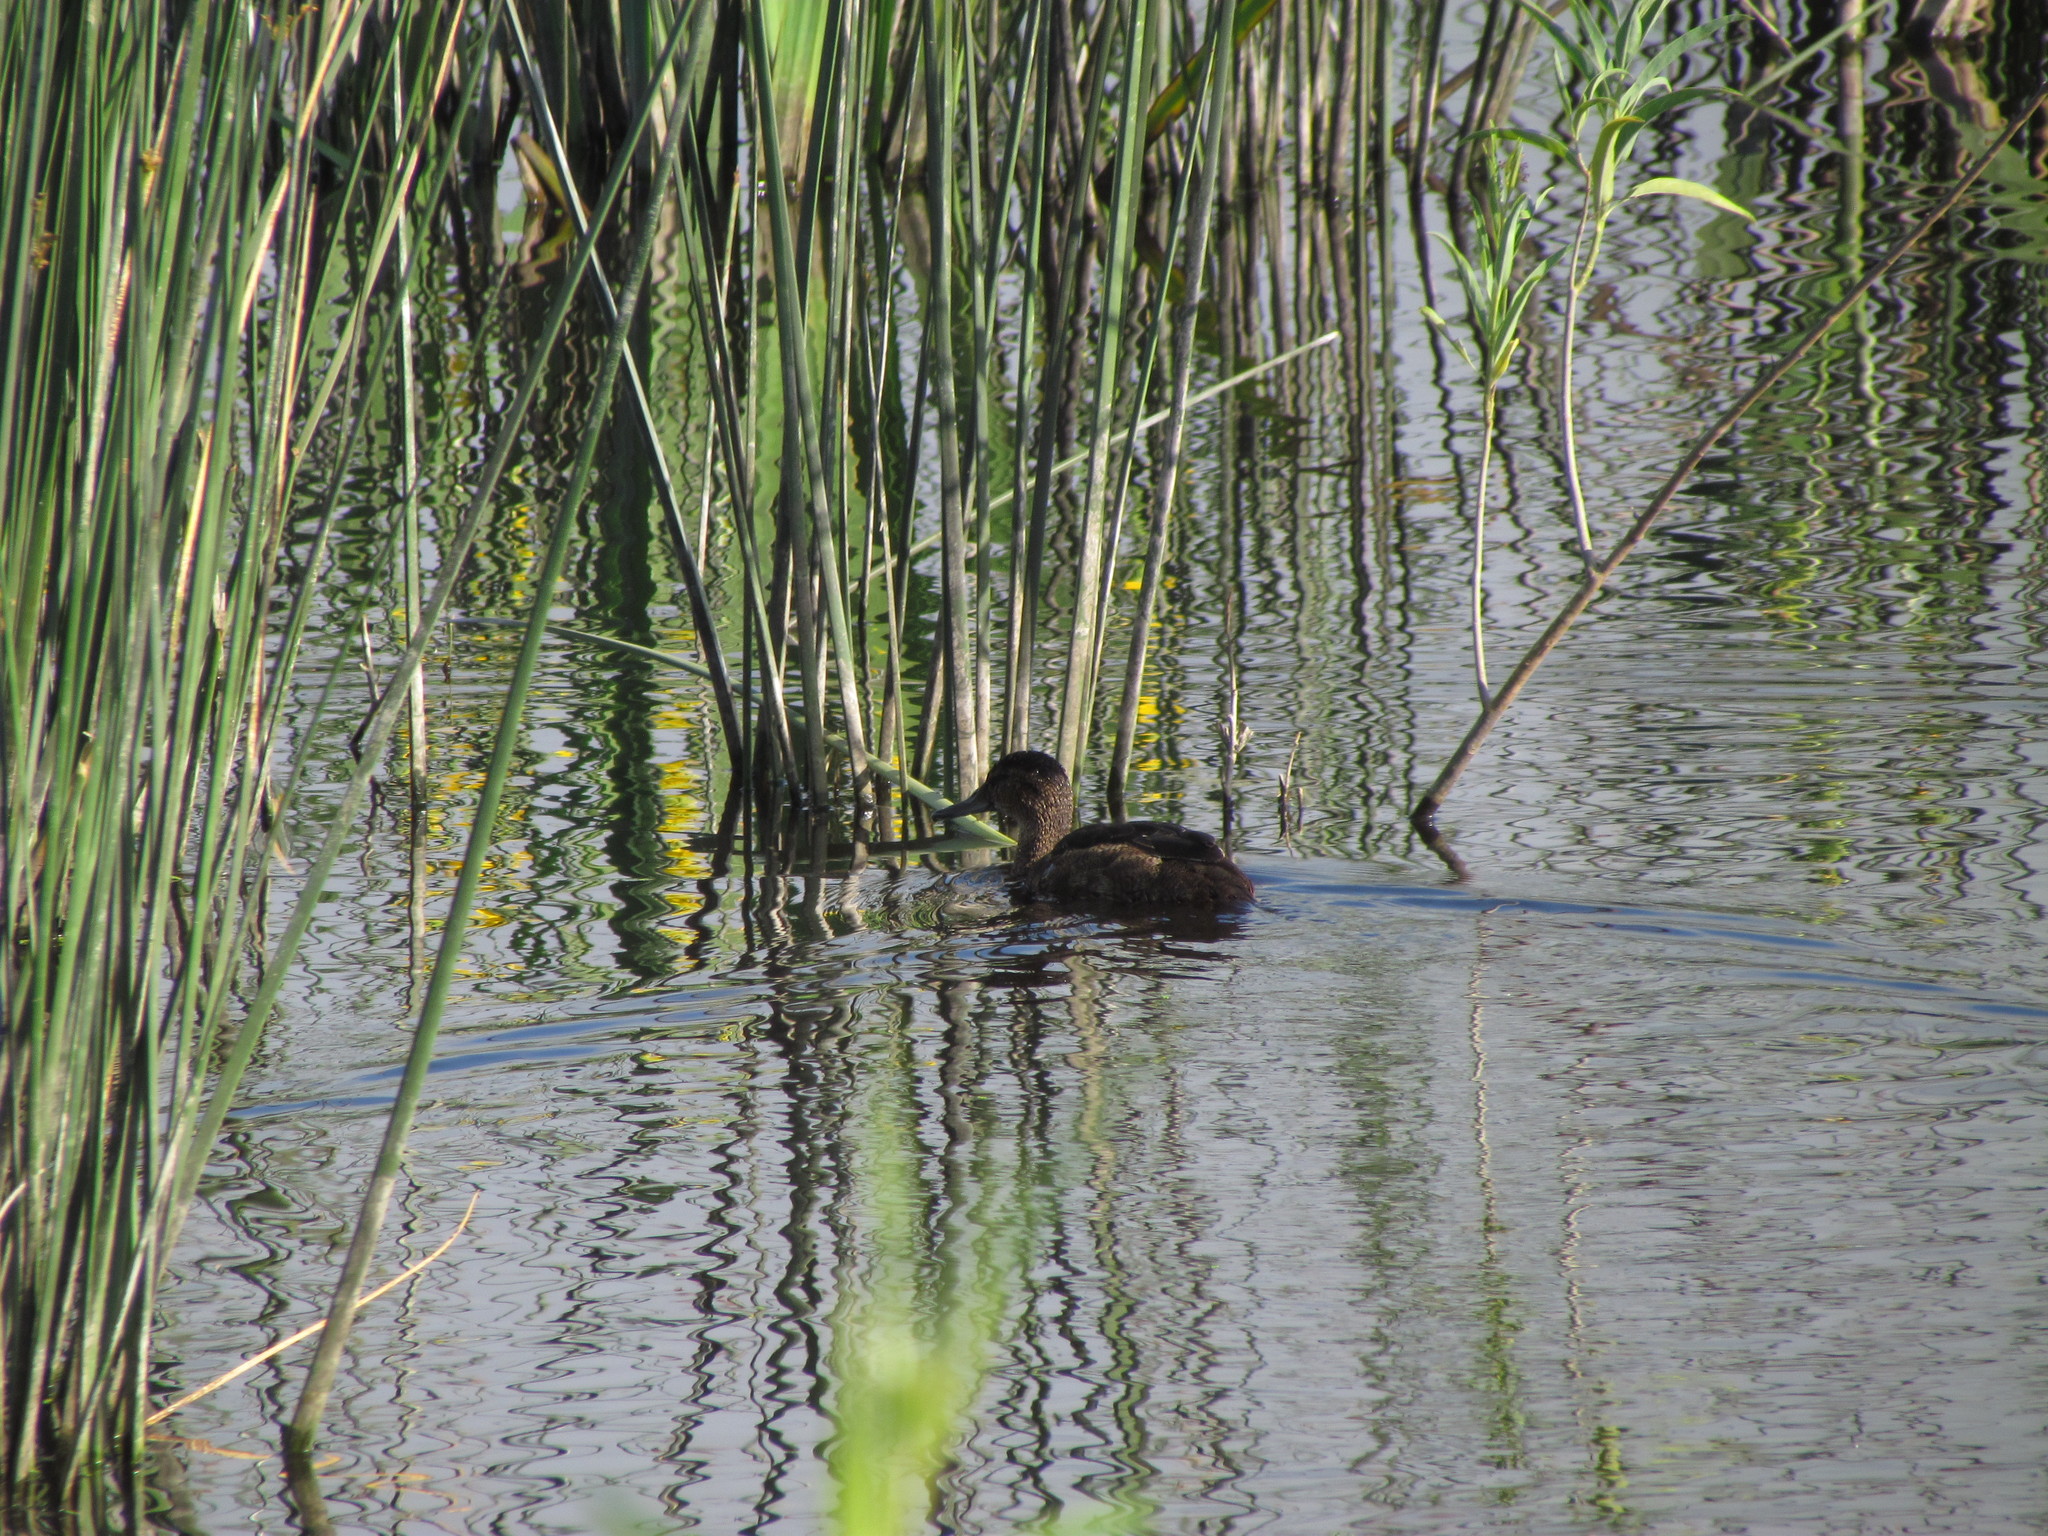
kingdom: Animalia
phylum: Chordata
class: Aves
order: Anseriformes
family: Anatidae
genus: Heteronetta
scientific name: Heteronetta atricapilla
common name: Black-headed duck
